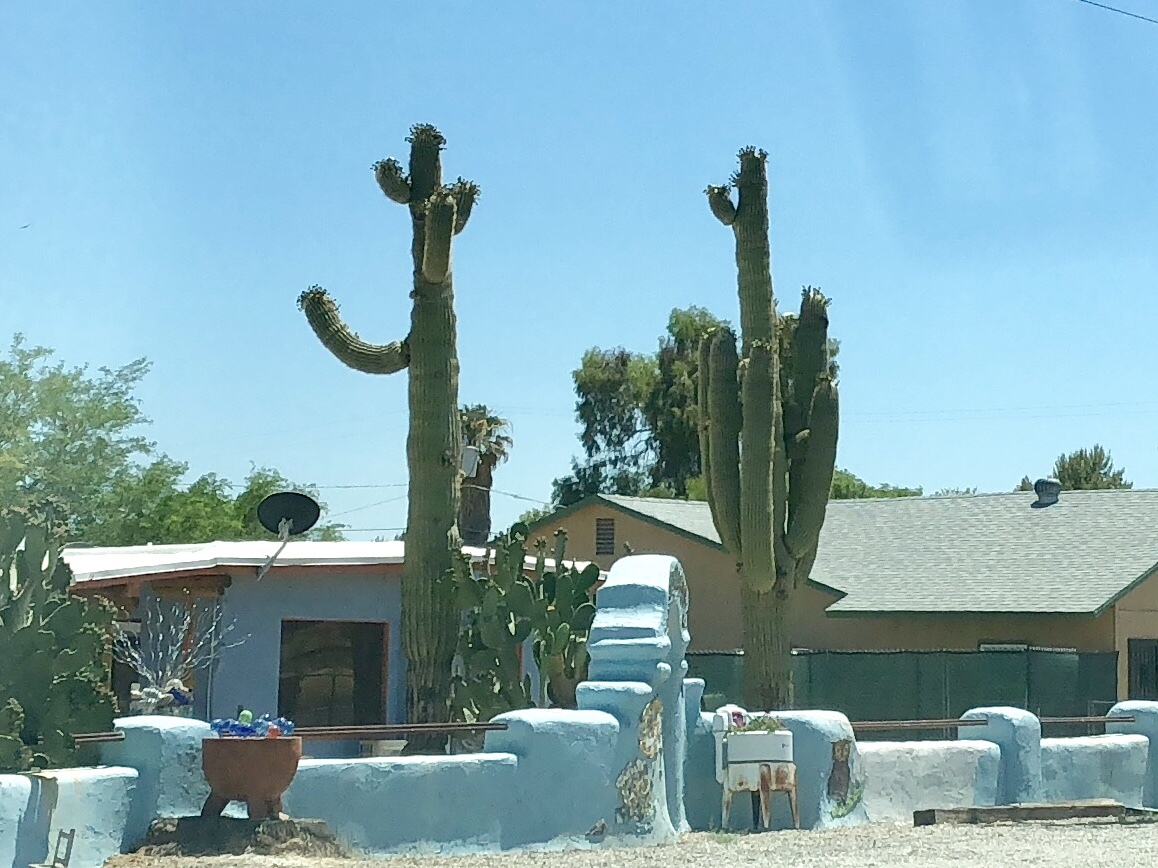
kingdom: Plantae
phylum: Tracheophyta
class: Magnoliopsida
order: Caryophyllales
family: Cactaceae
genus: Carnegiea
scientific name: Carnegiea gigantea
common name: Saguaro
